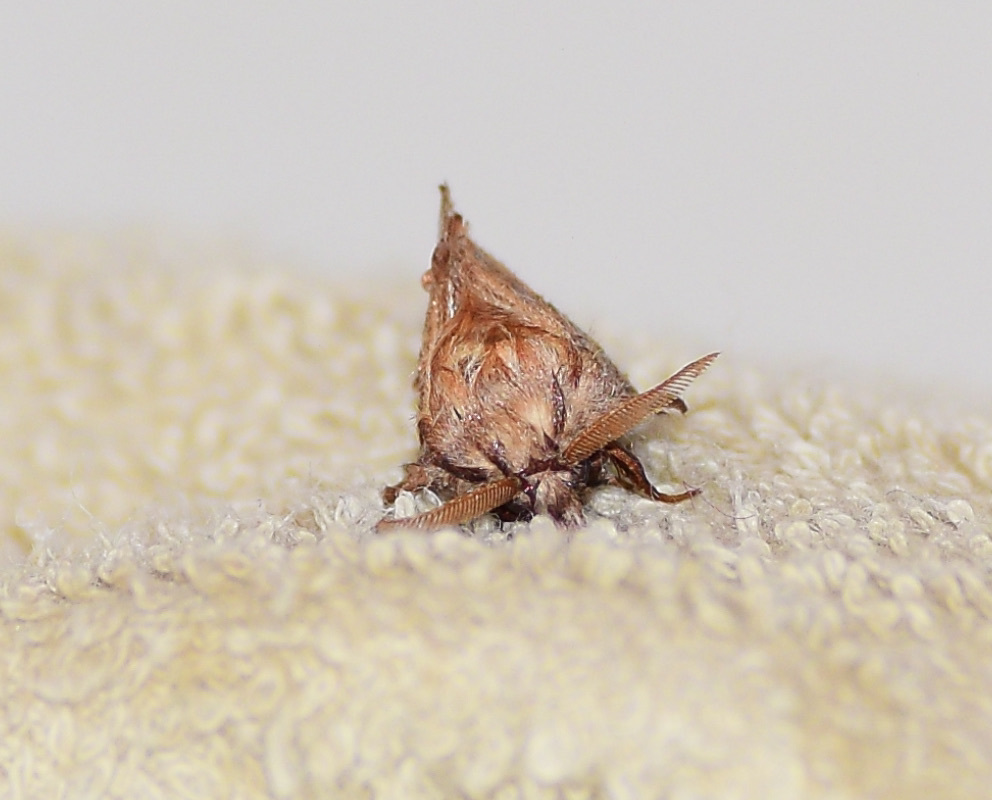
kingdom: Animalia
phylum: Arthropoda
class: Insecta
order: Lepidoptera
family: Lasiocampidae
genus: Phyllodesma
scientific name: Phyllodesma americana
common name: American lappet moth
